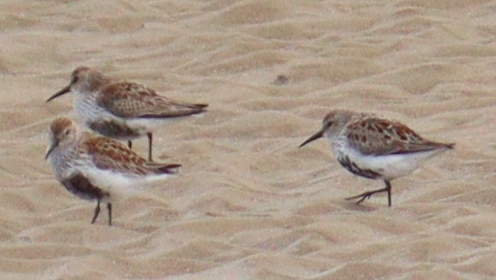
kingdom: Animalia
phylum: Chordata
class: Aves
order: Charadriiformes
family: Scolopacidae
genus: Calidris
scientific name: Calidris alpina
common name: Dunlin
